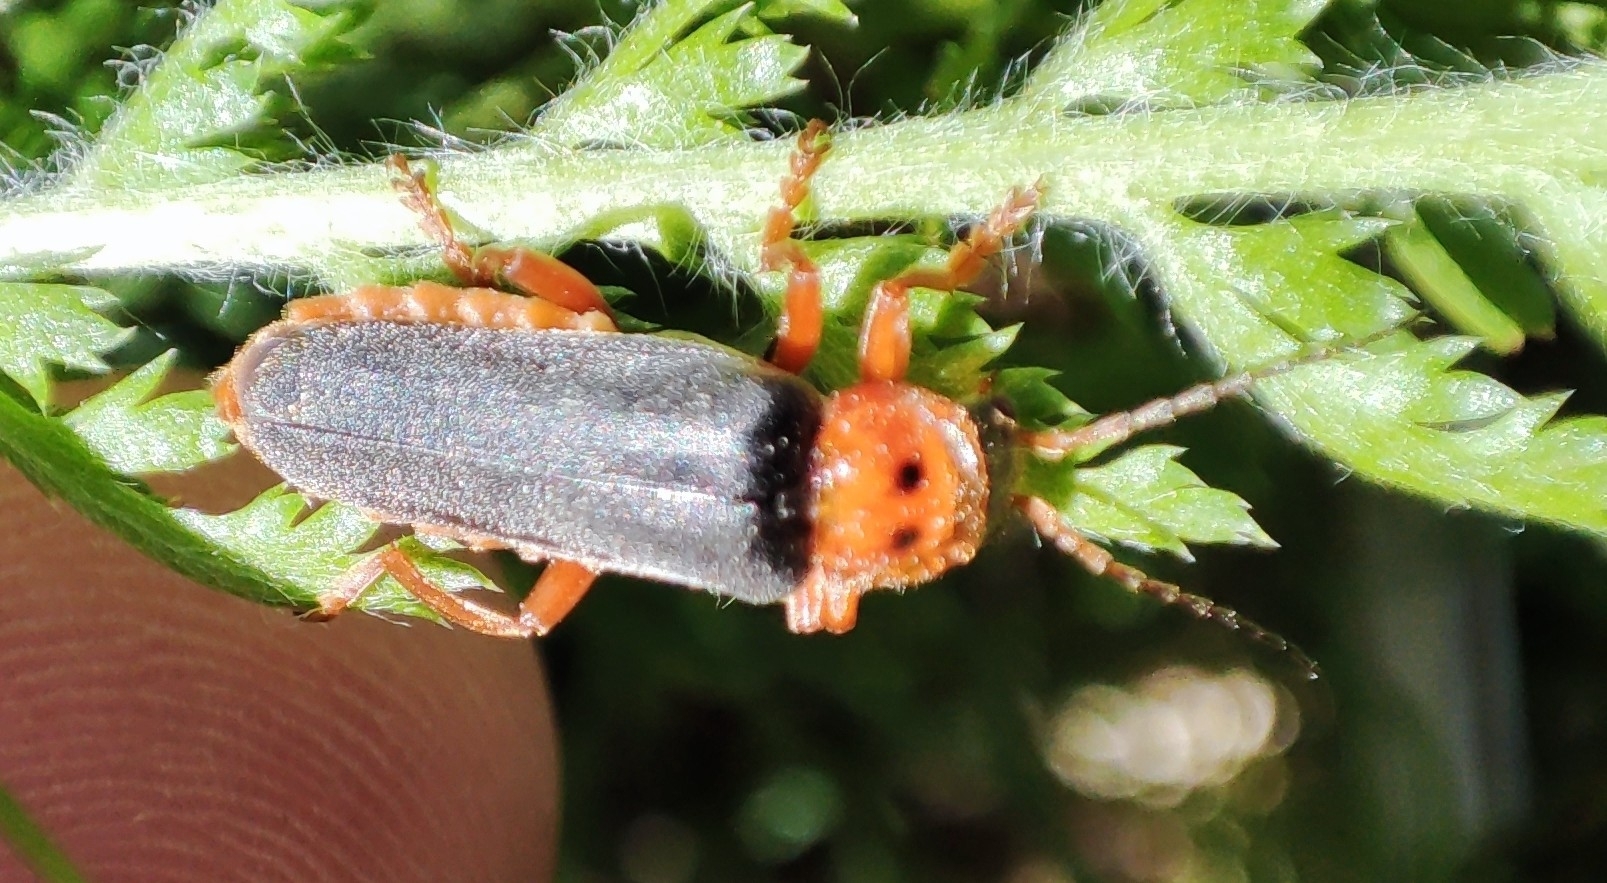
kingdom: Animalia
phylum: Arthropoda
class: Insecta
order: Coleoptera
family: Cantharidae
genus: Cantharis
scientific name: Cantharis annularis
